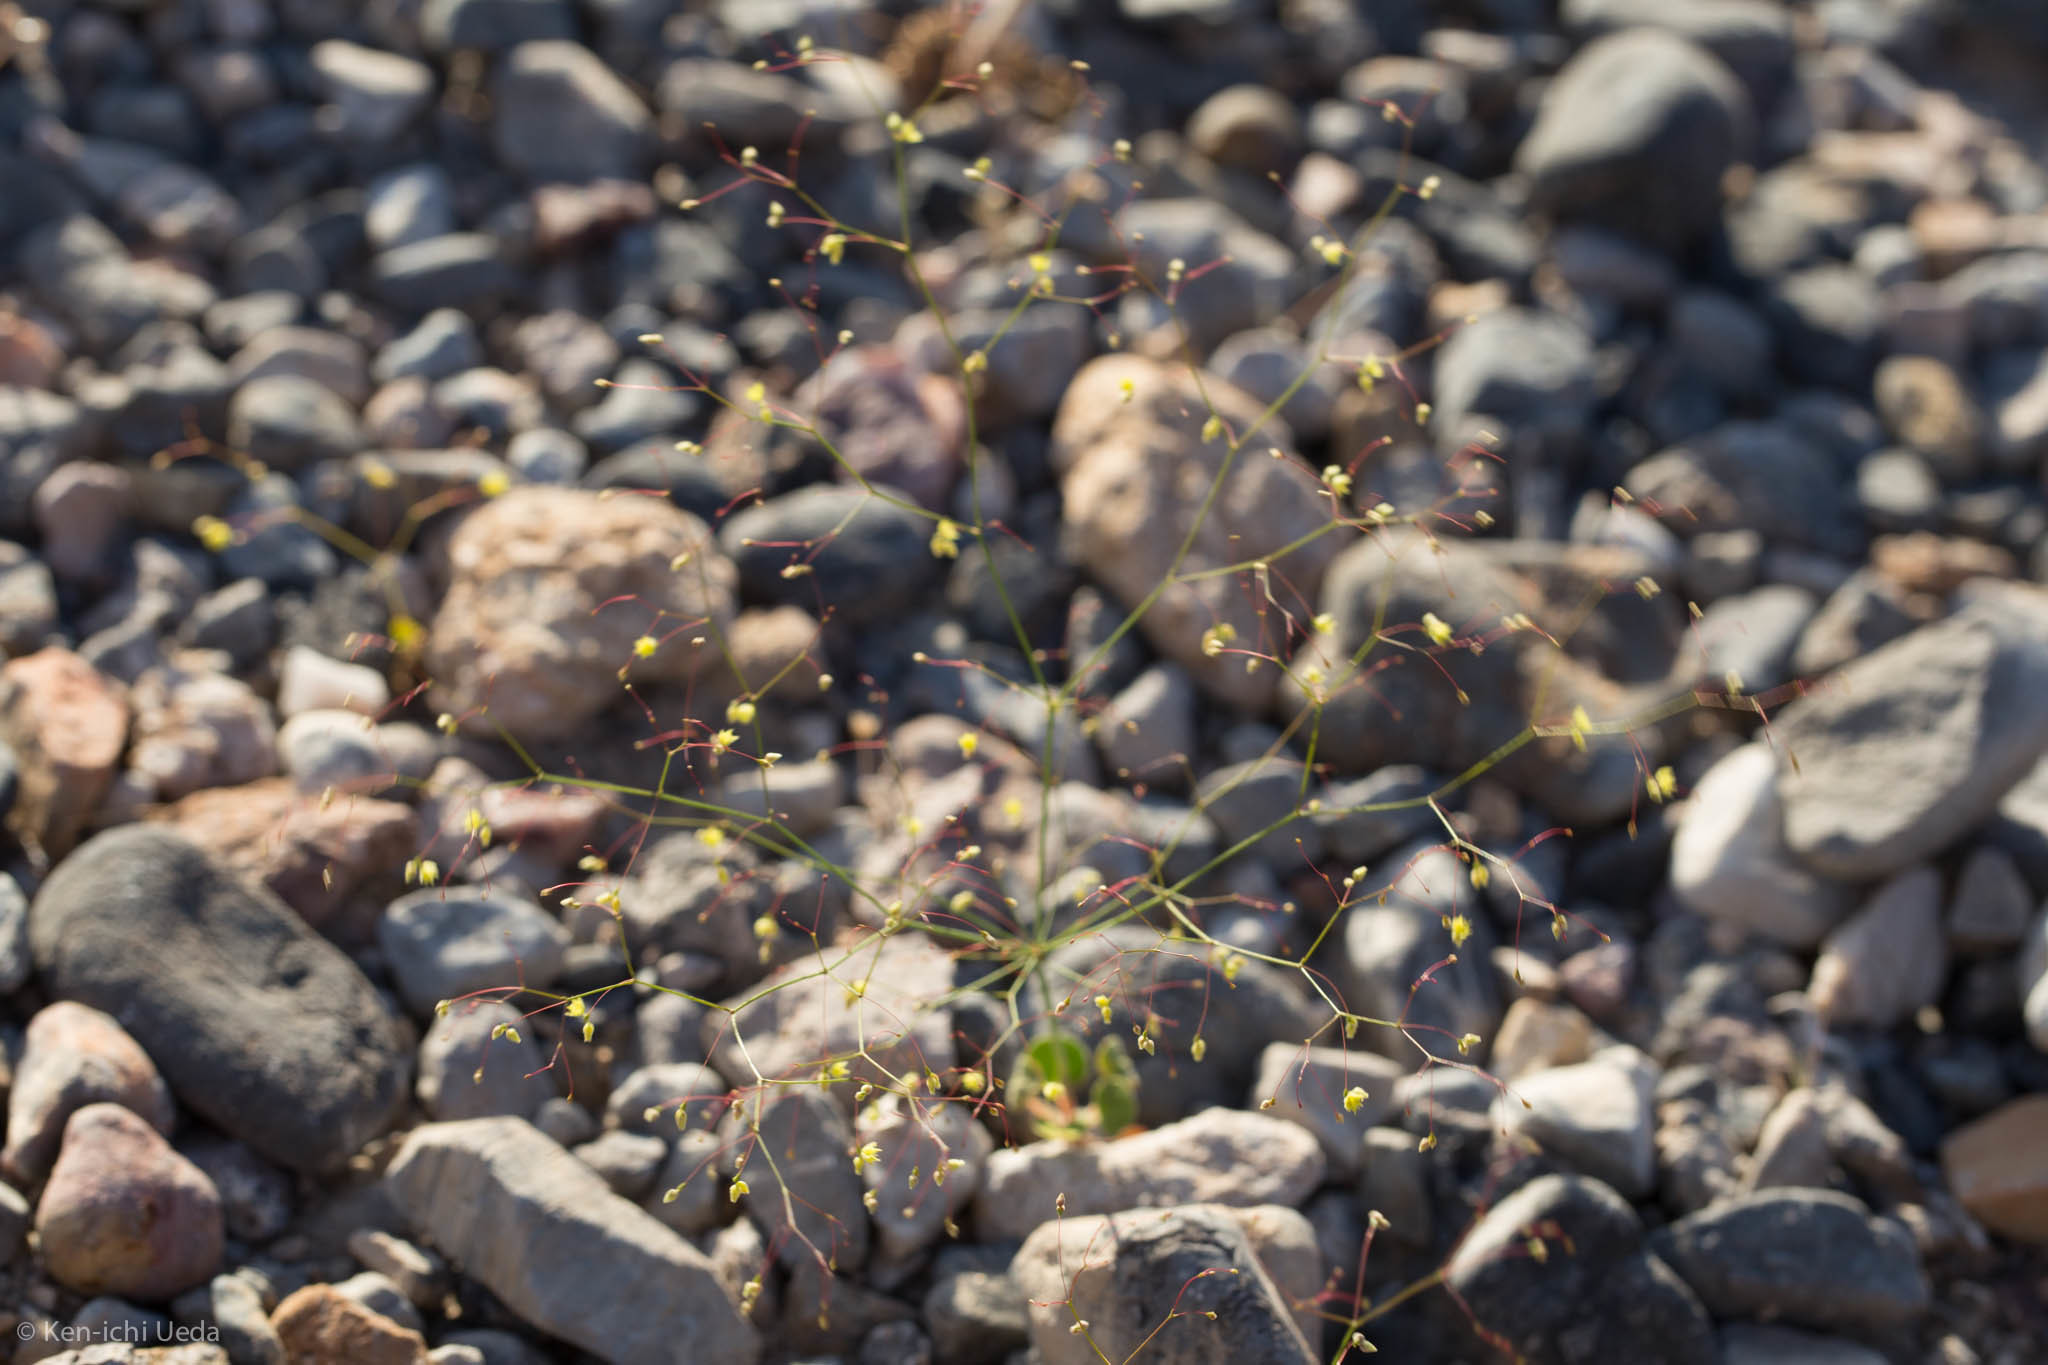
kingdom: Plantae
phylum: Tracheophyta
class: Magnoliopsida
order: Caryophyllales
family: Polygonaceae
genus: Eriogonum
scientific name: Eriogonum trichopes
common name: Little desert trumpet
